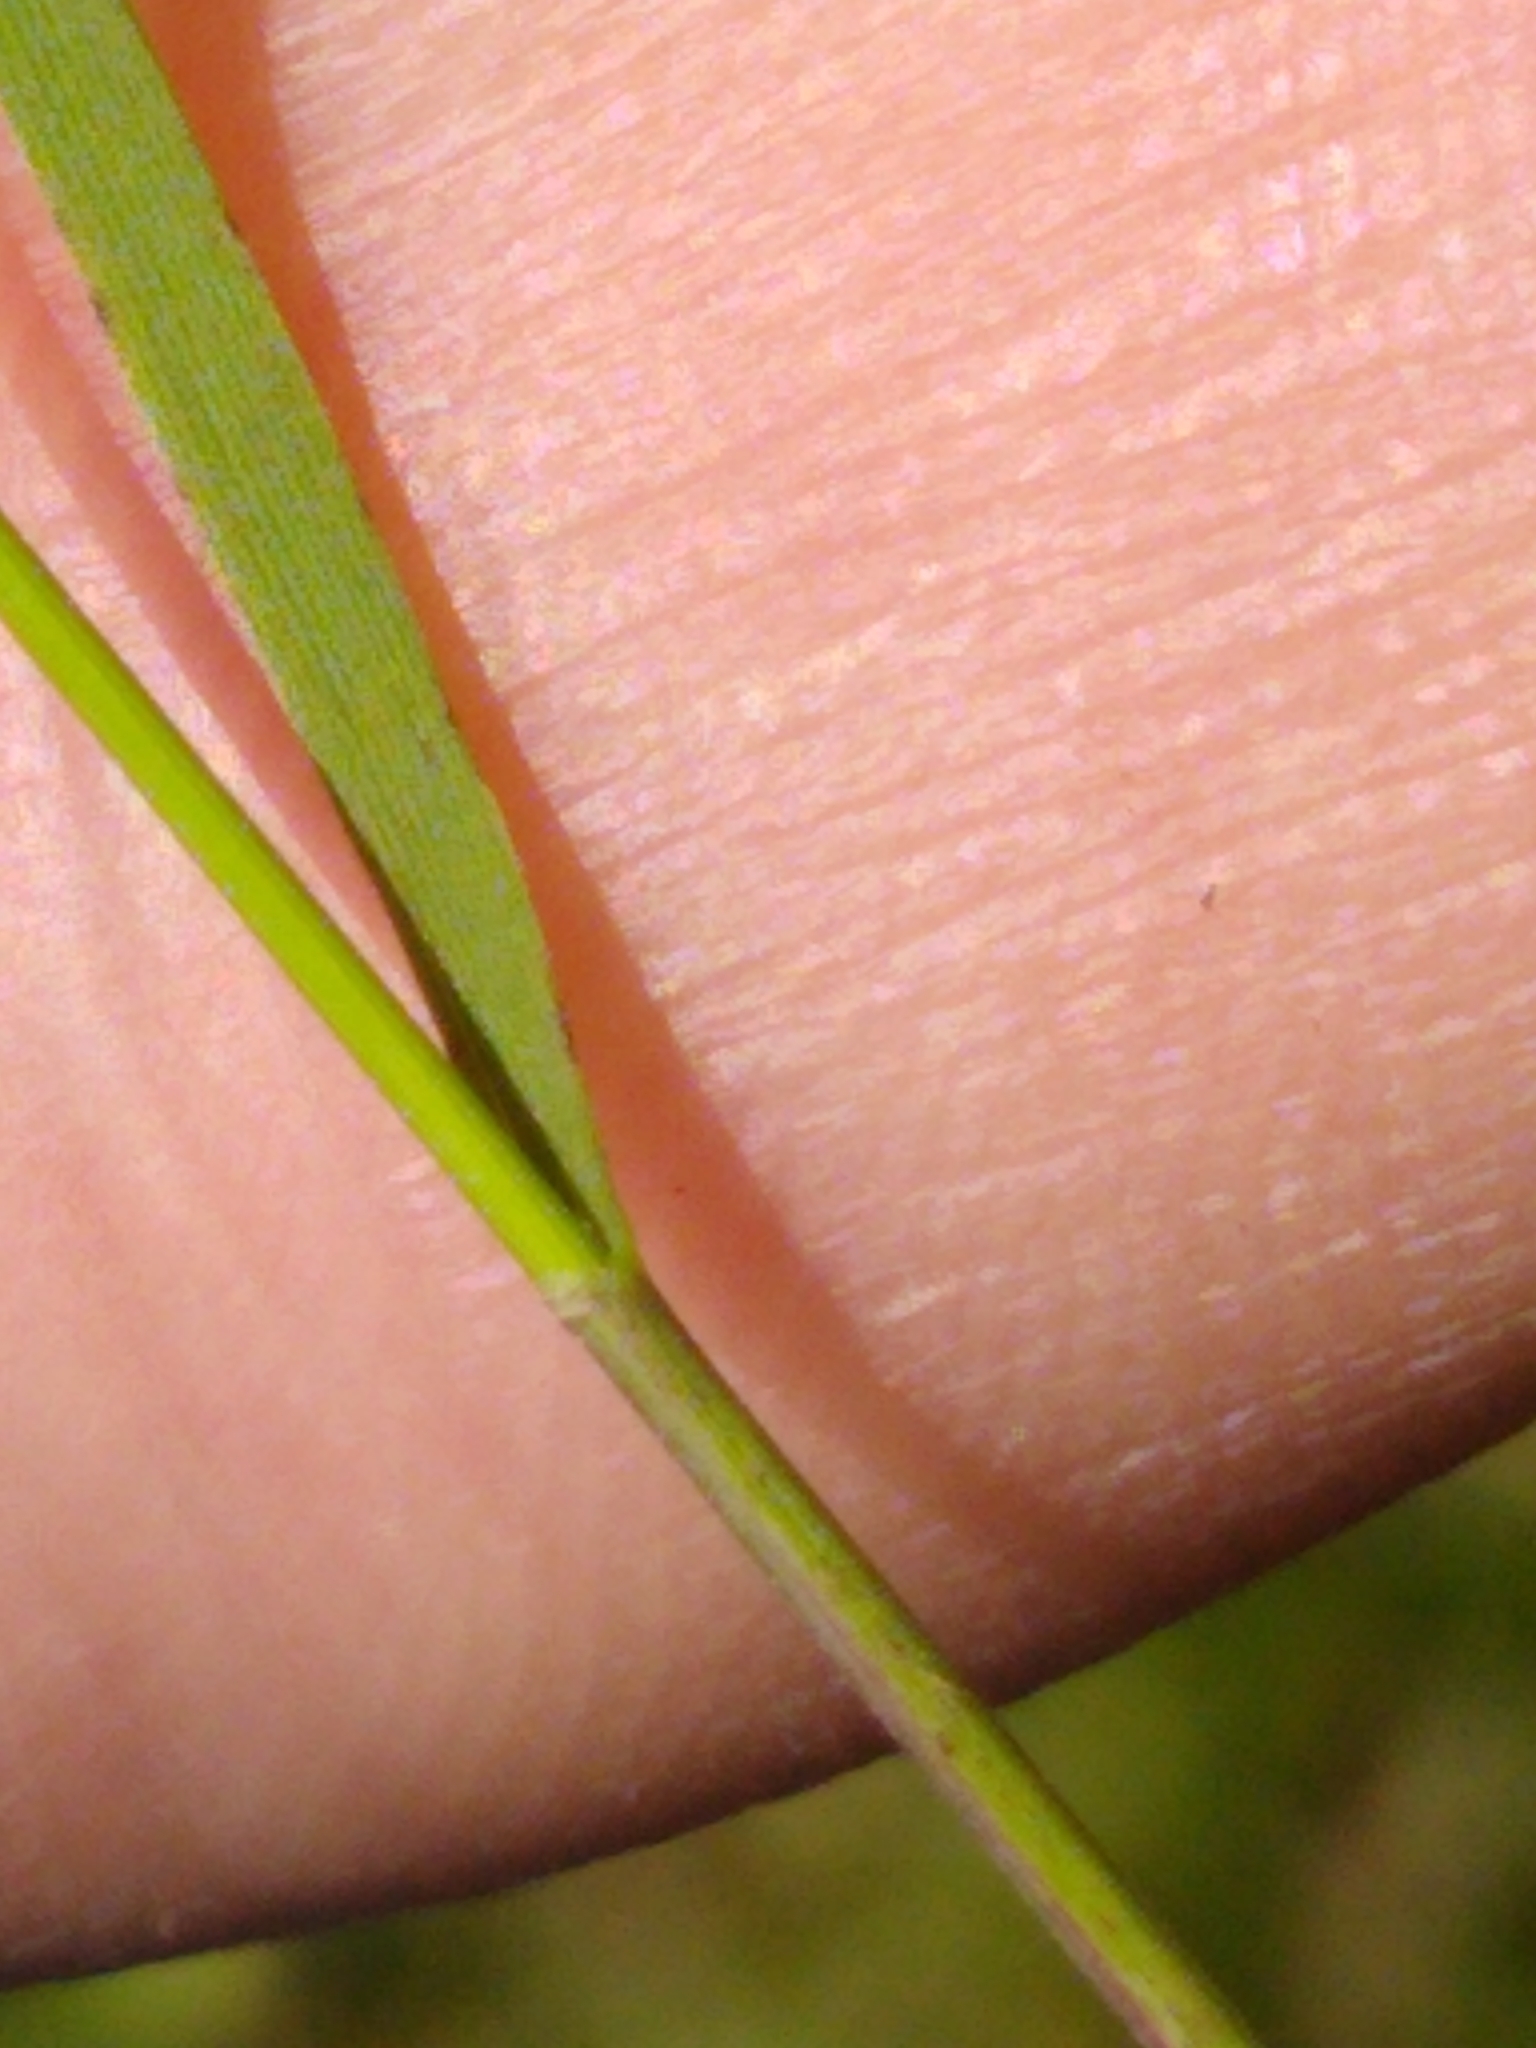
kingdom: Plantae
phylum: Tracheophyta
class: Liliopsida
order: Poales
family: Poaceae
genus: Schizachne
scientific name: Schizachne purpurascens
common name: False melic
